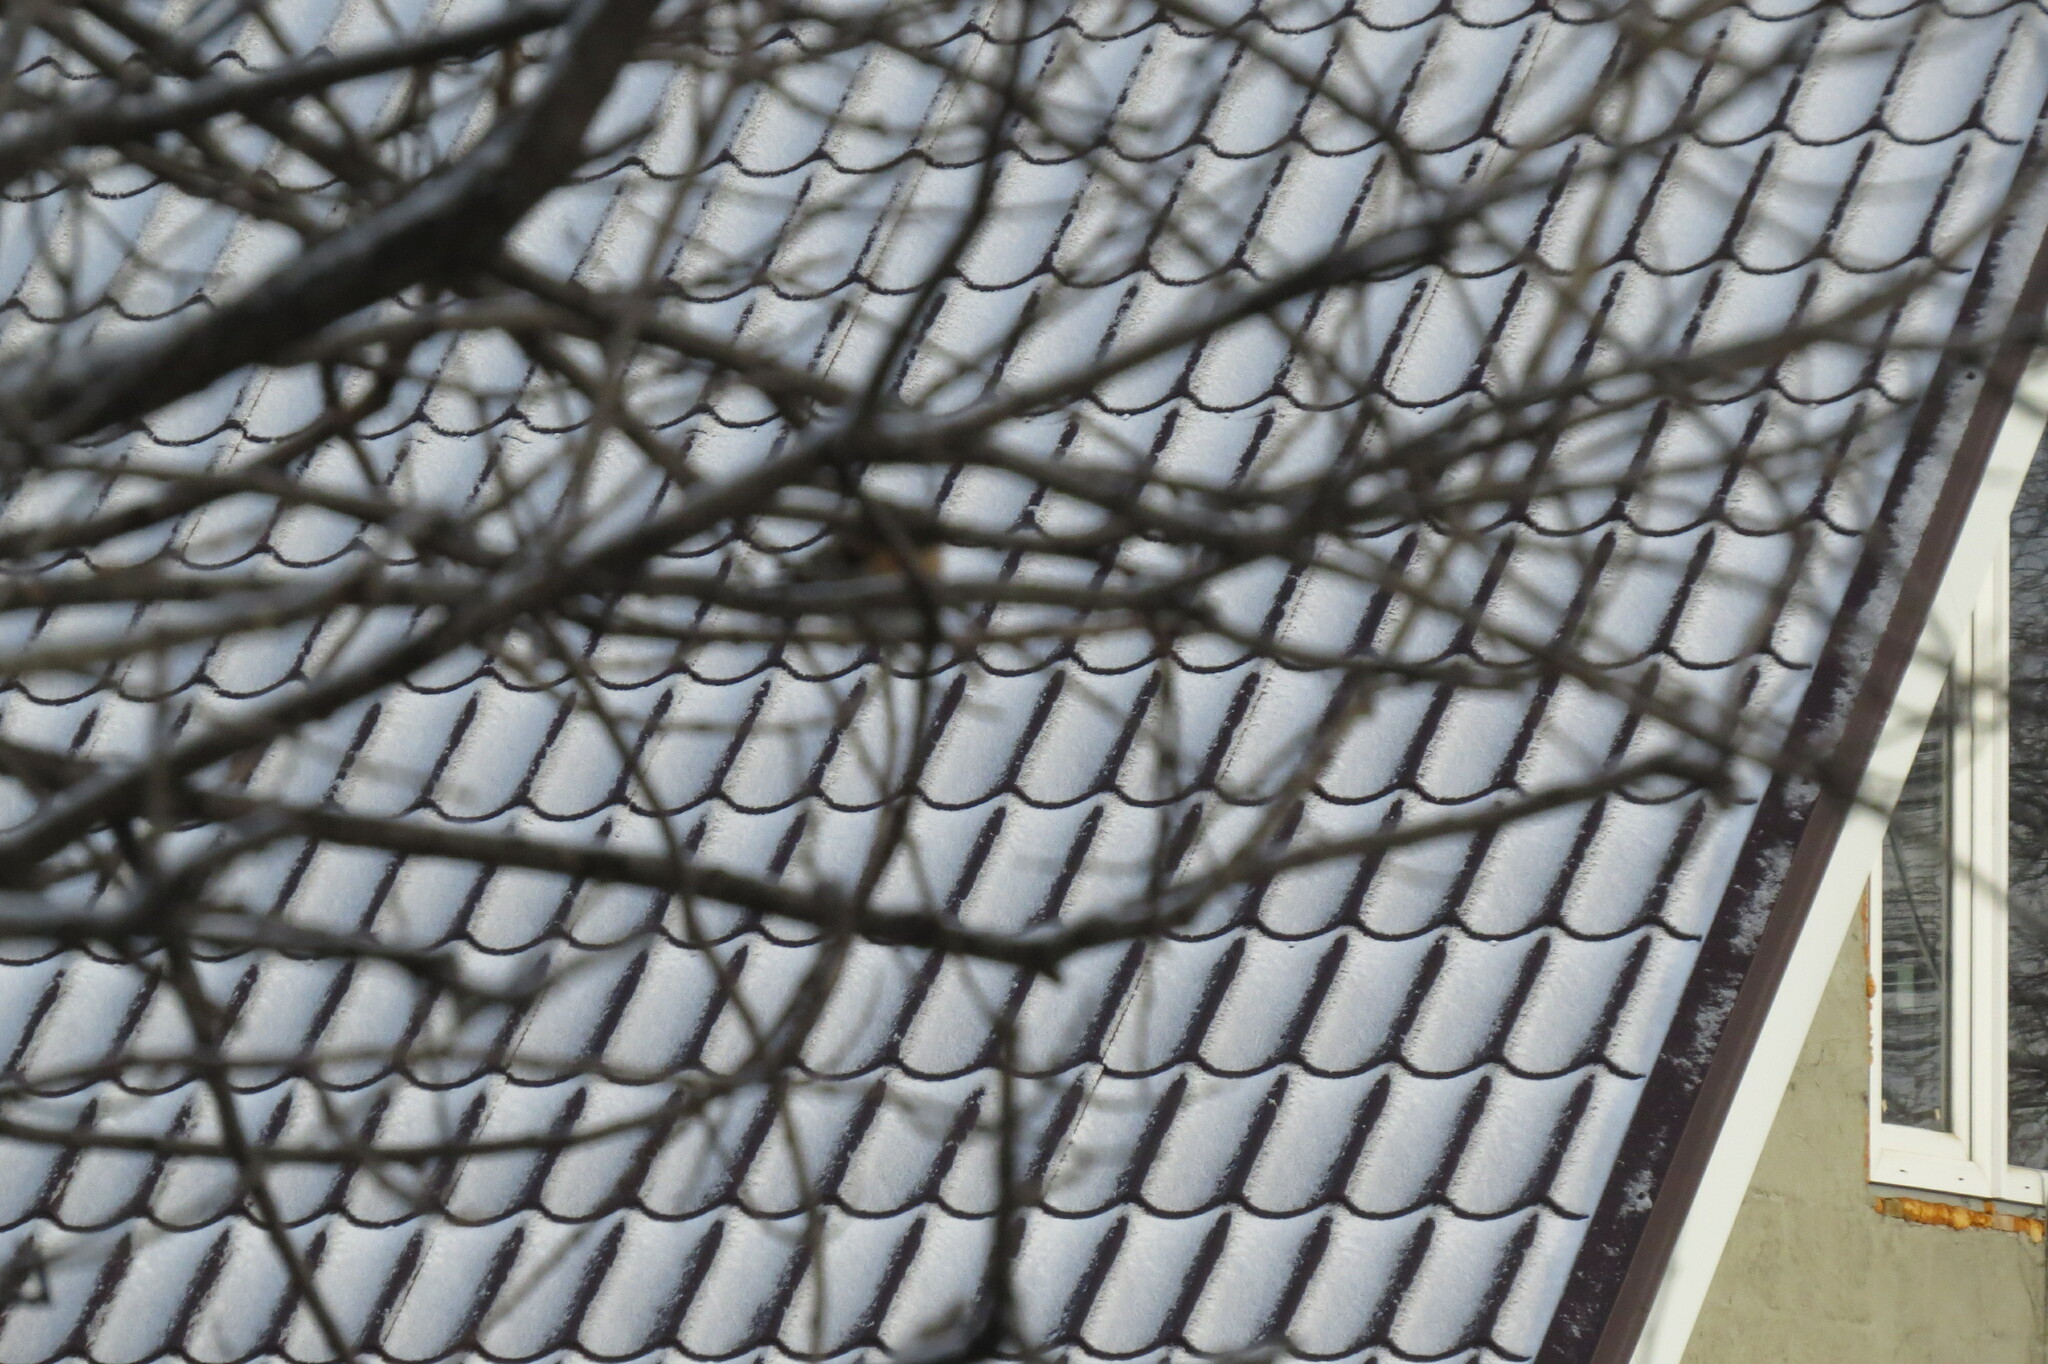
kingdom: Animalia
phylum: Chordata
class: Aves
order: Passeriformes
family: Fringillidae
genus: Fringilla
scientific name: Fringilla montifringilla
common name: Brambling
